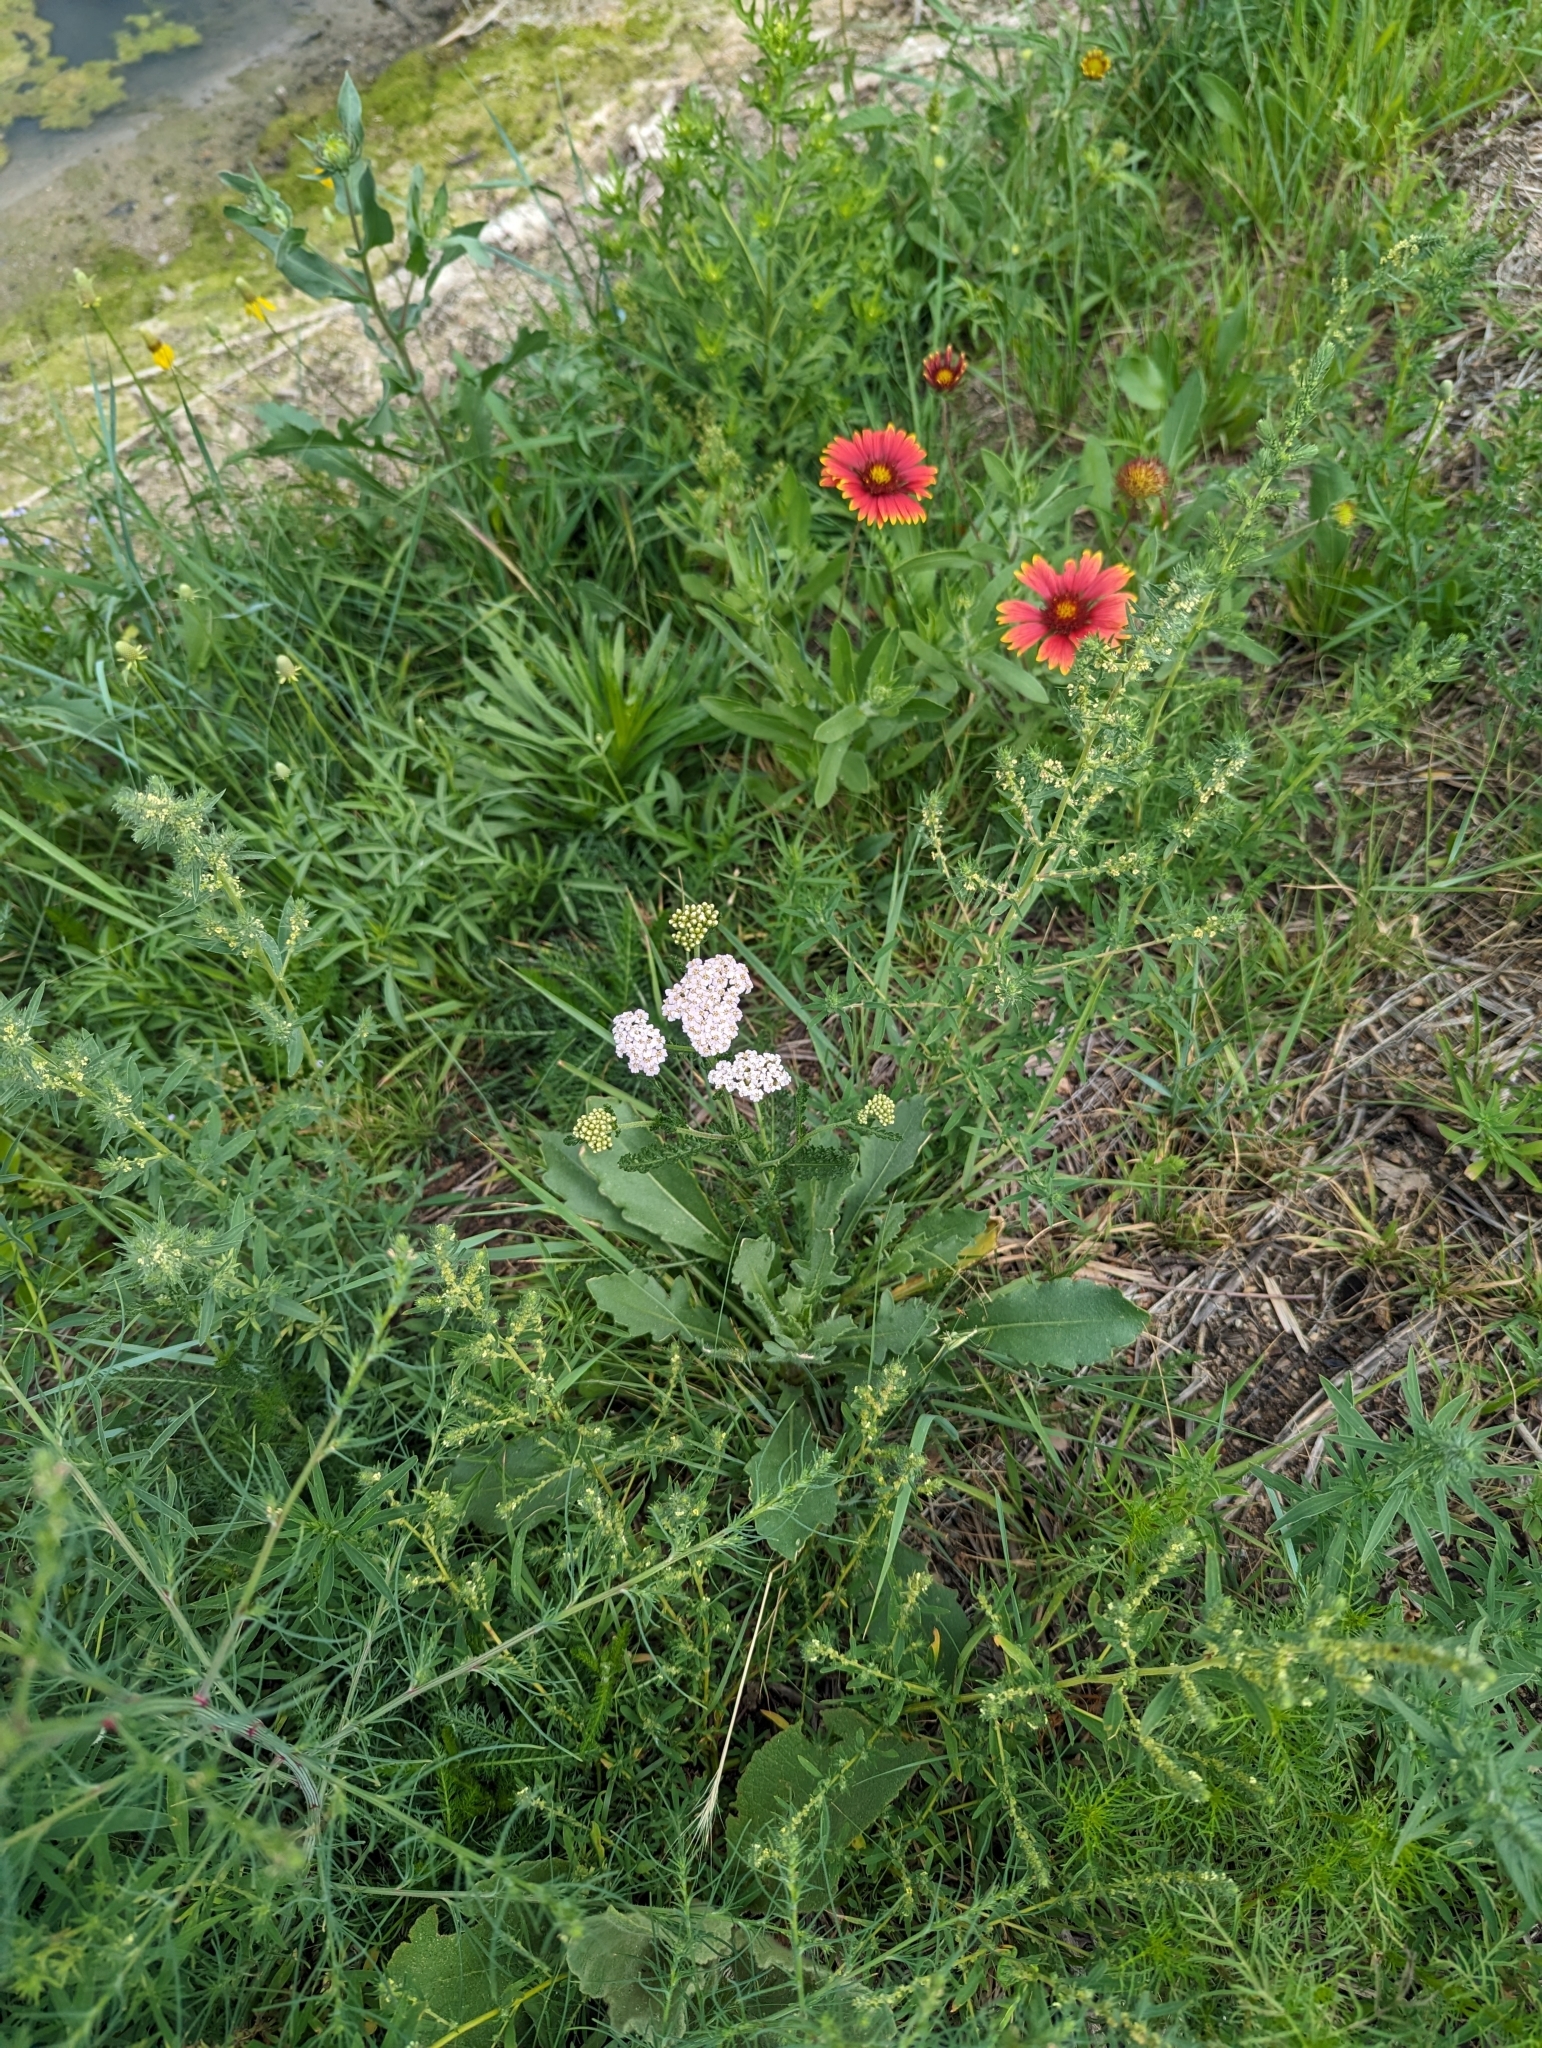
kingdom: Plantae
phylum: Tracheophyta
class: Magnoliopsida
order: Asterales
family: Asteraceae
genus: Achillea
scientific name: Achillea millefolium
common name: Yarrow
